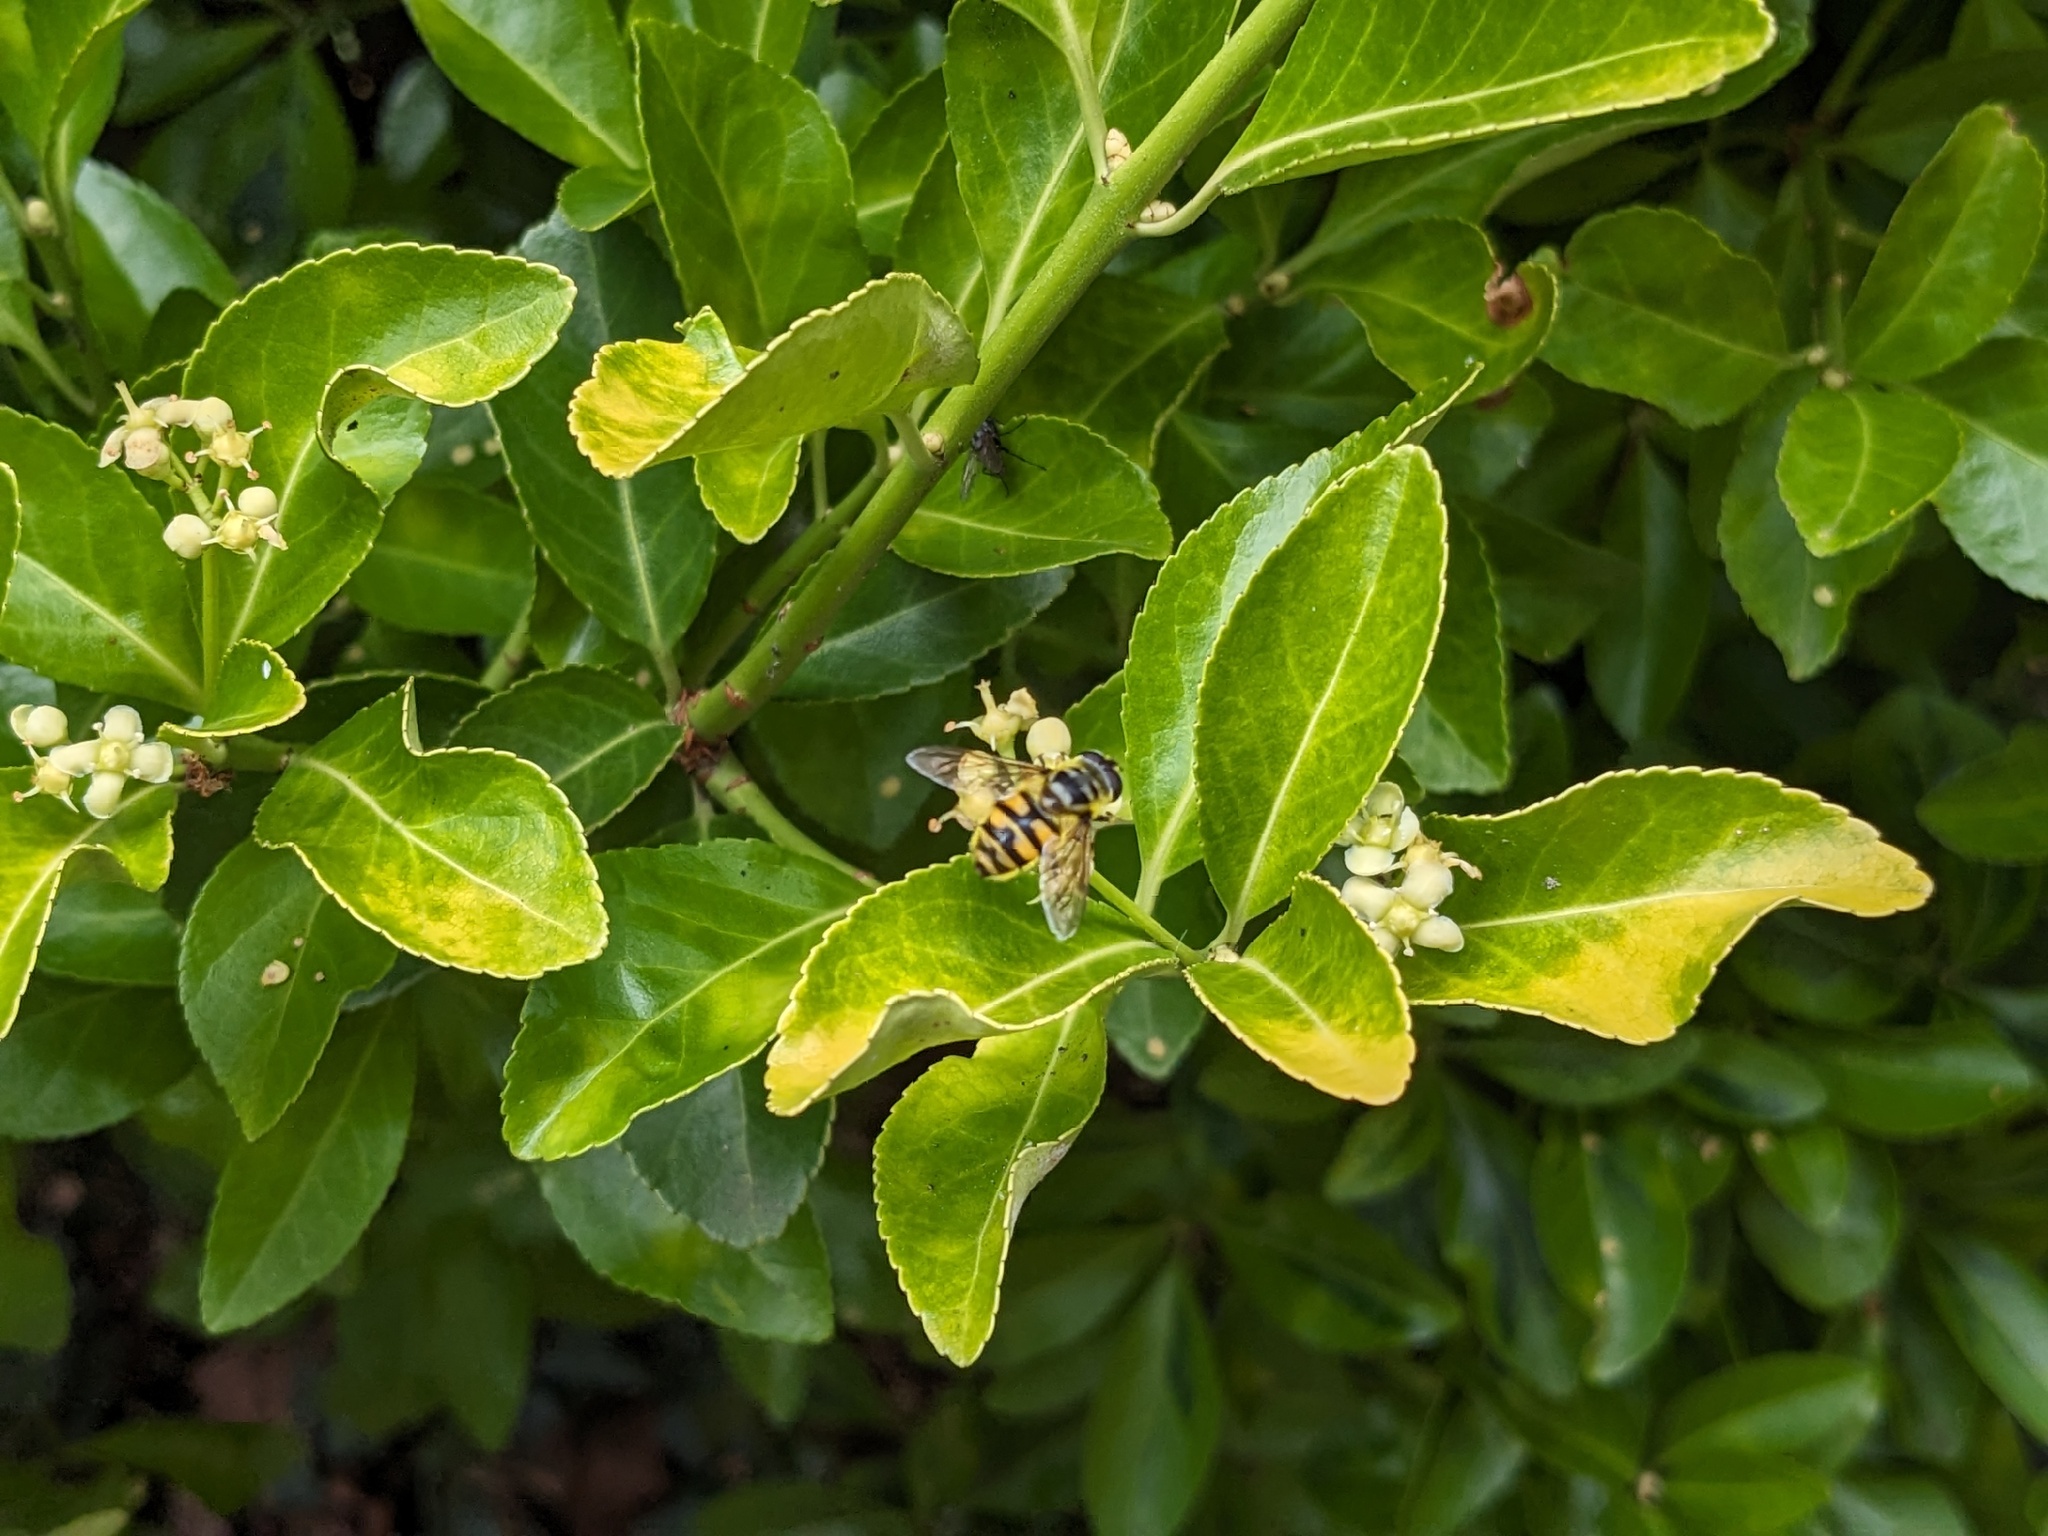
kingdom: Animalia
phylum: Arthropoda
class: Insecta
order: Diptera
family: Syrphidae
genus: Myathropa
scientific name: Myathropa florea
